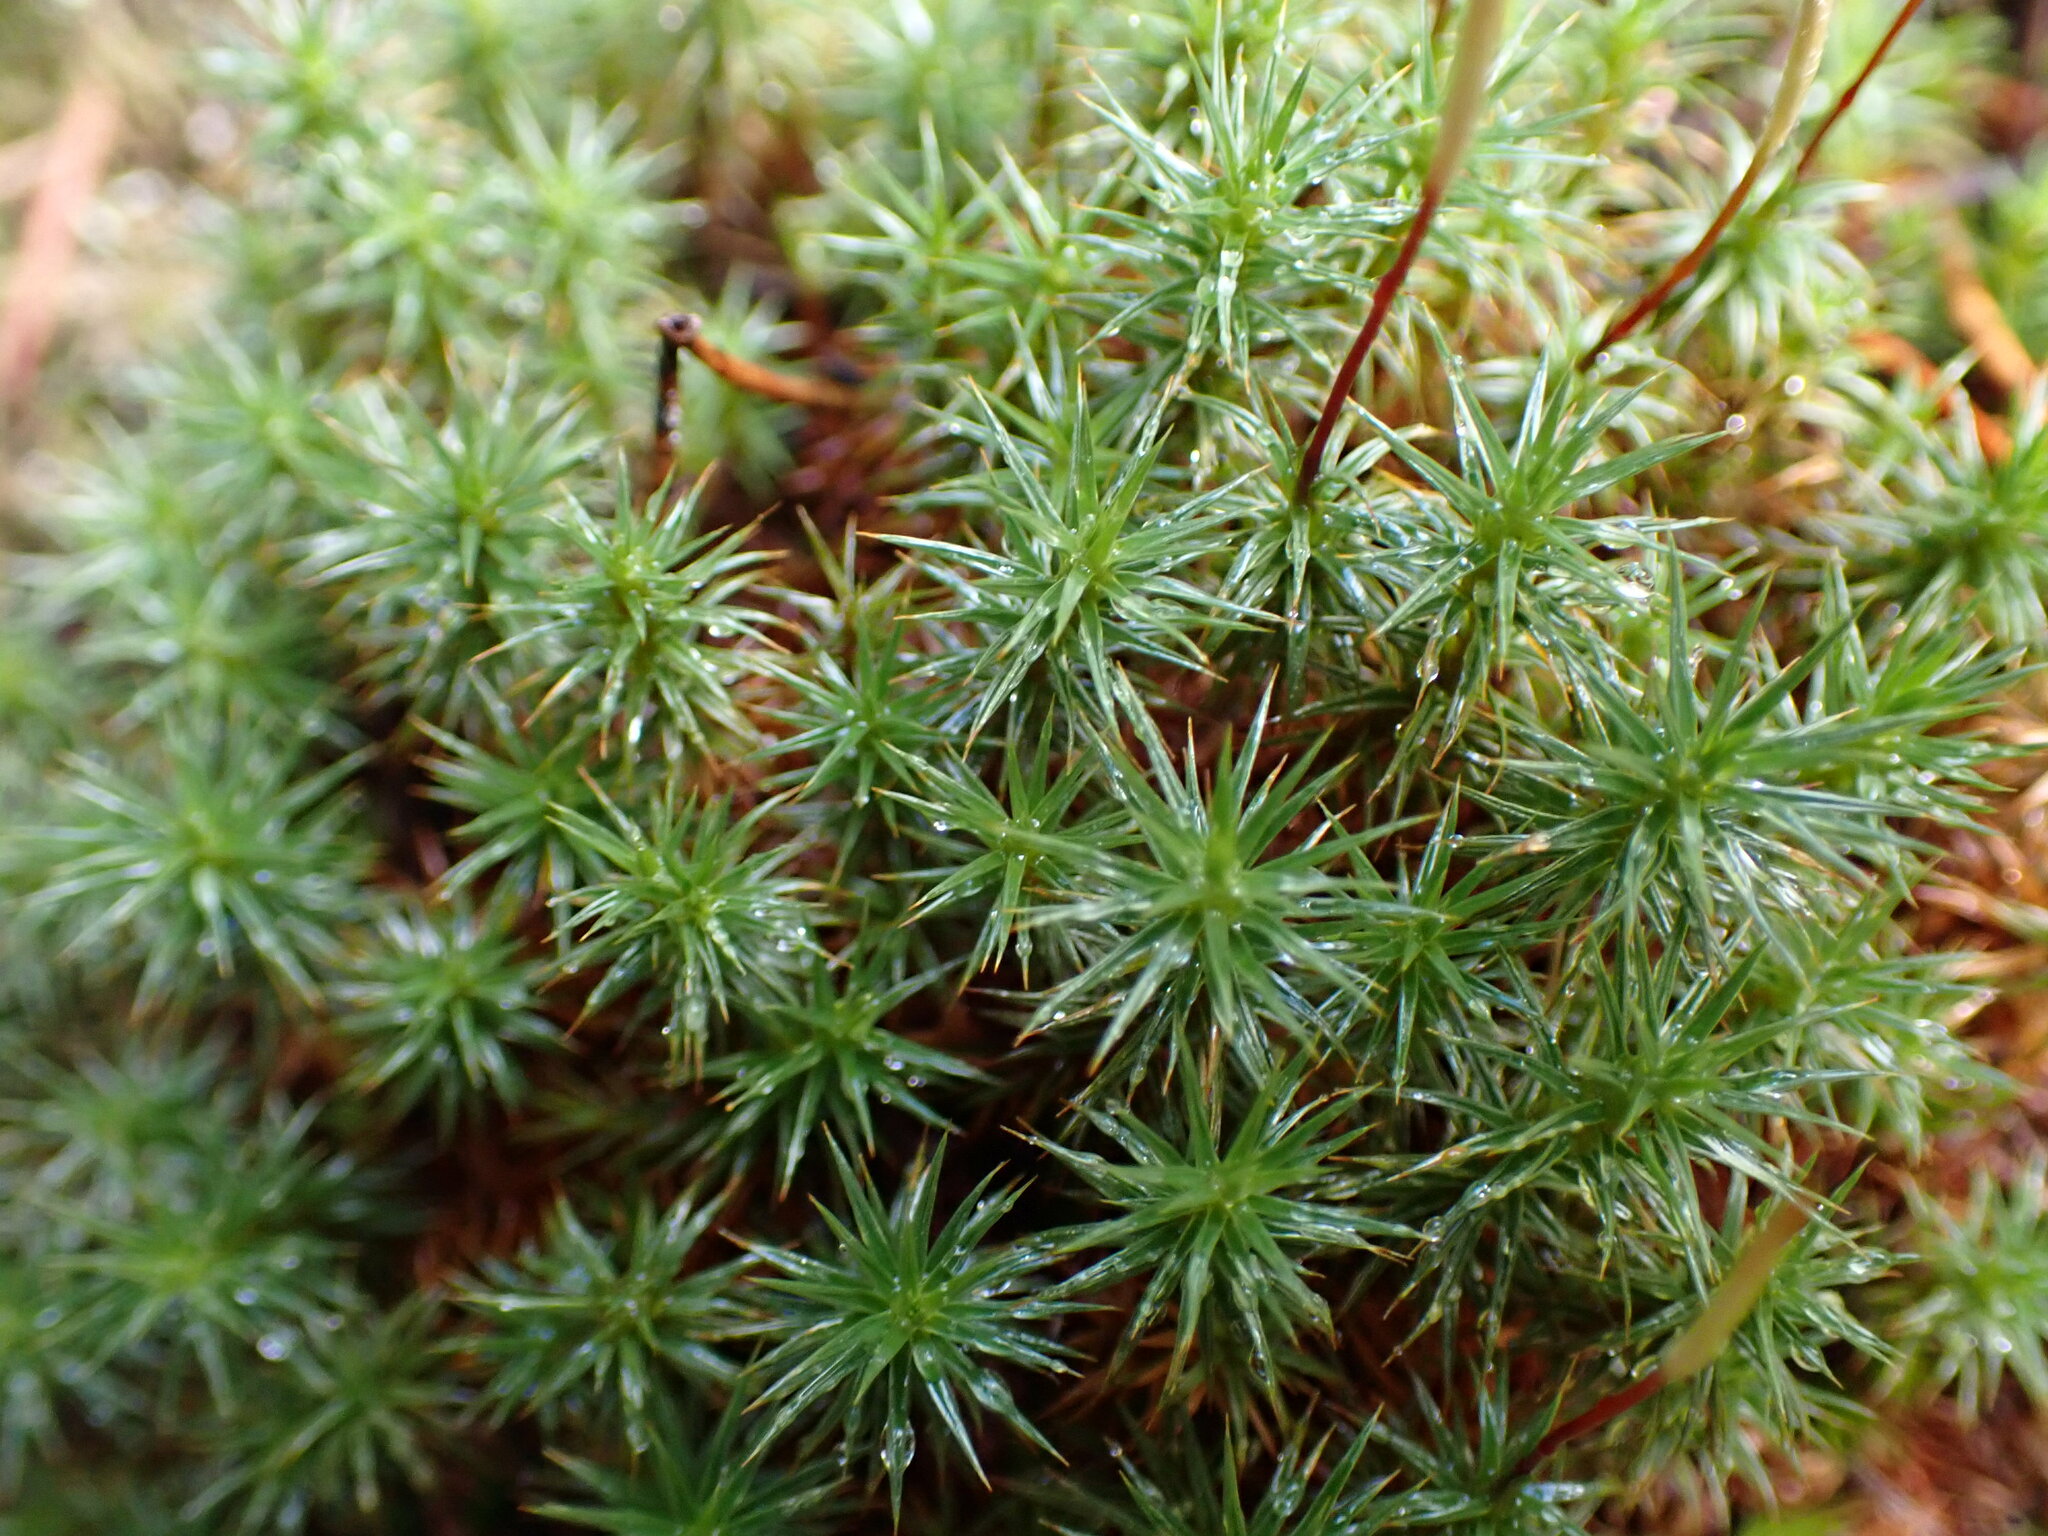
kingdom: Plantae
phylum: Bryophyta
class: Polytrichopsida
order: Polytrichales
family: Polytrichaceae
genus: Polytrichum
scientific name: Polytrichum juniperinum
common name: Juniper haircap moss
